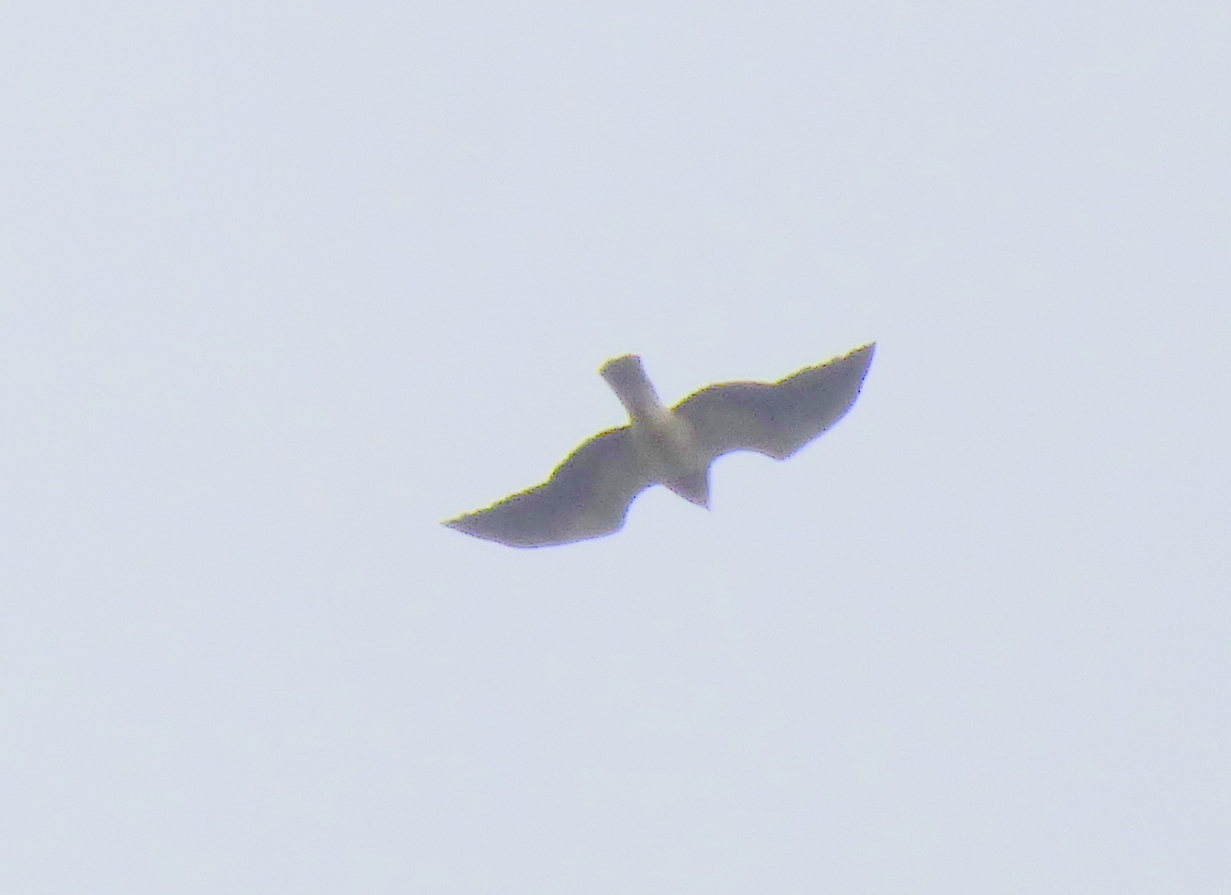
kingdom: Animalia
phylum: Chordata
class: Aves
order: Accipitriformes
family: Accipitridae
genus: Buteo
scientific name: Buteo swainsoni
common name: Swainson's hawk
